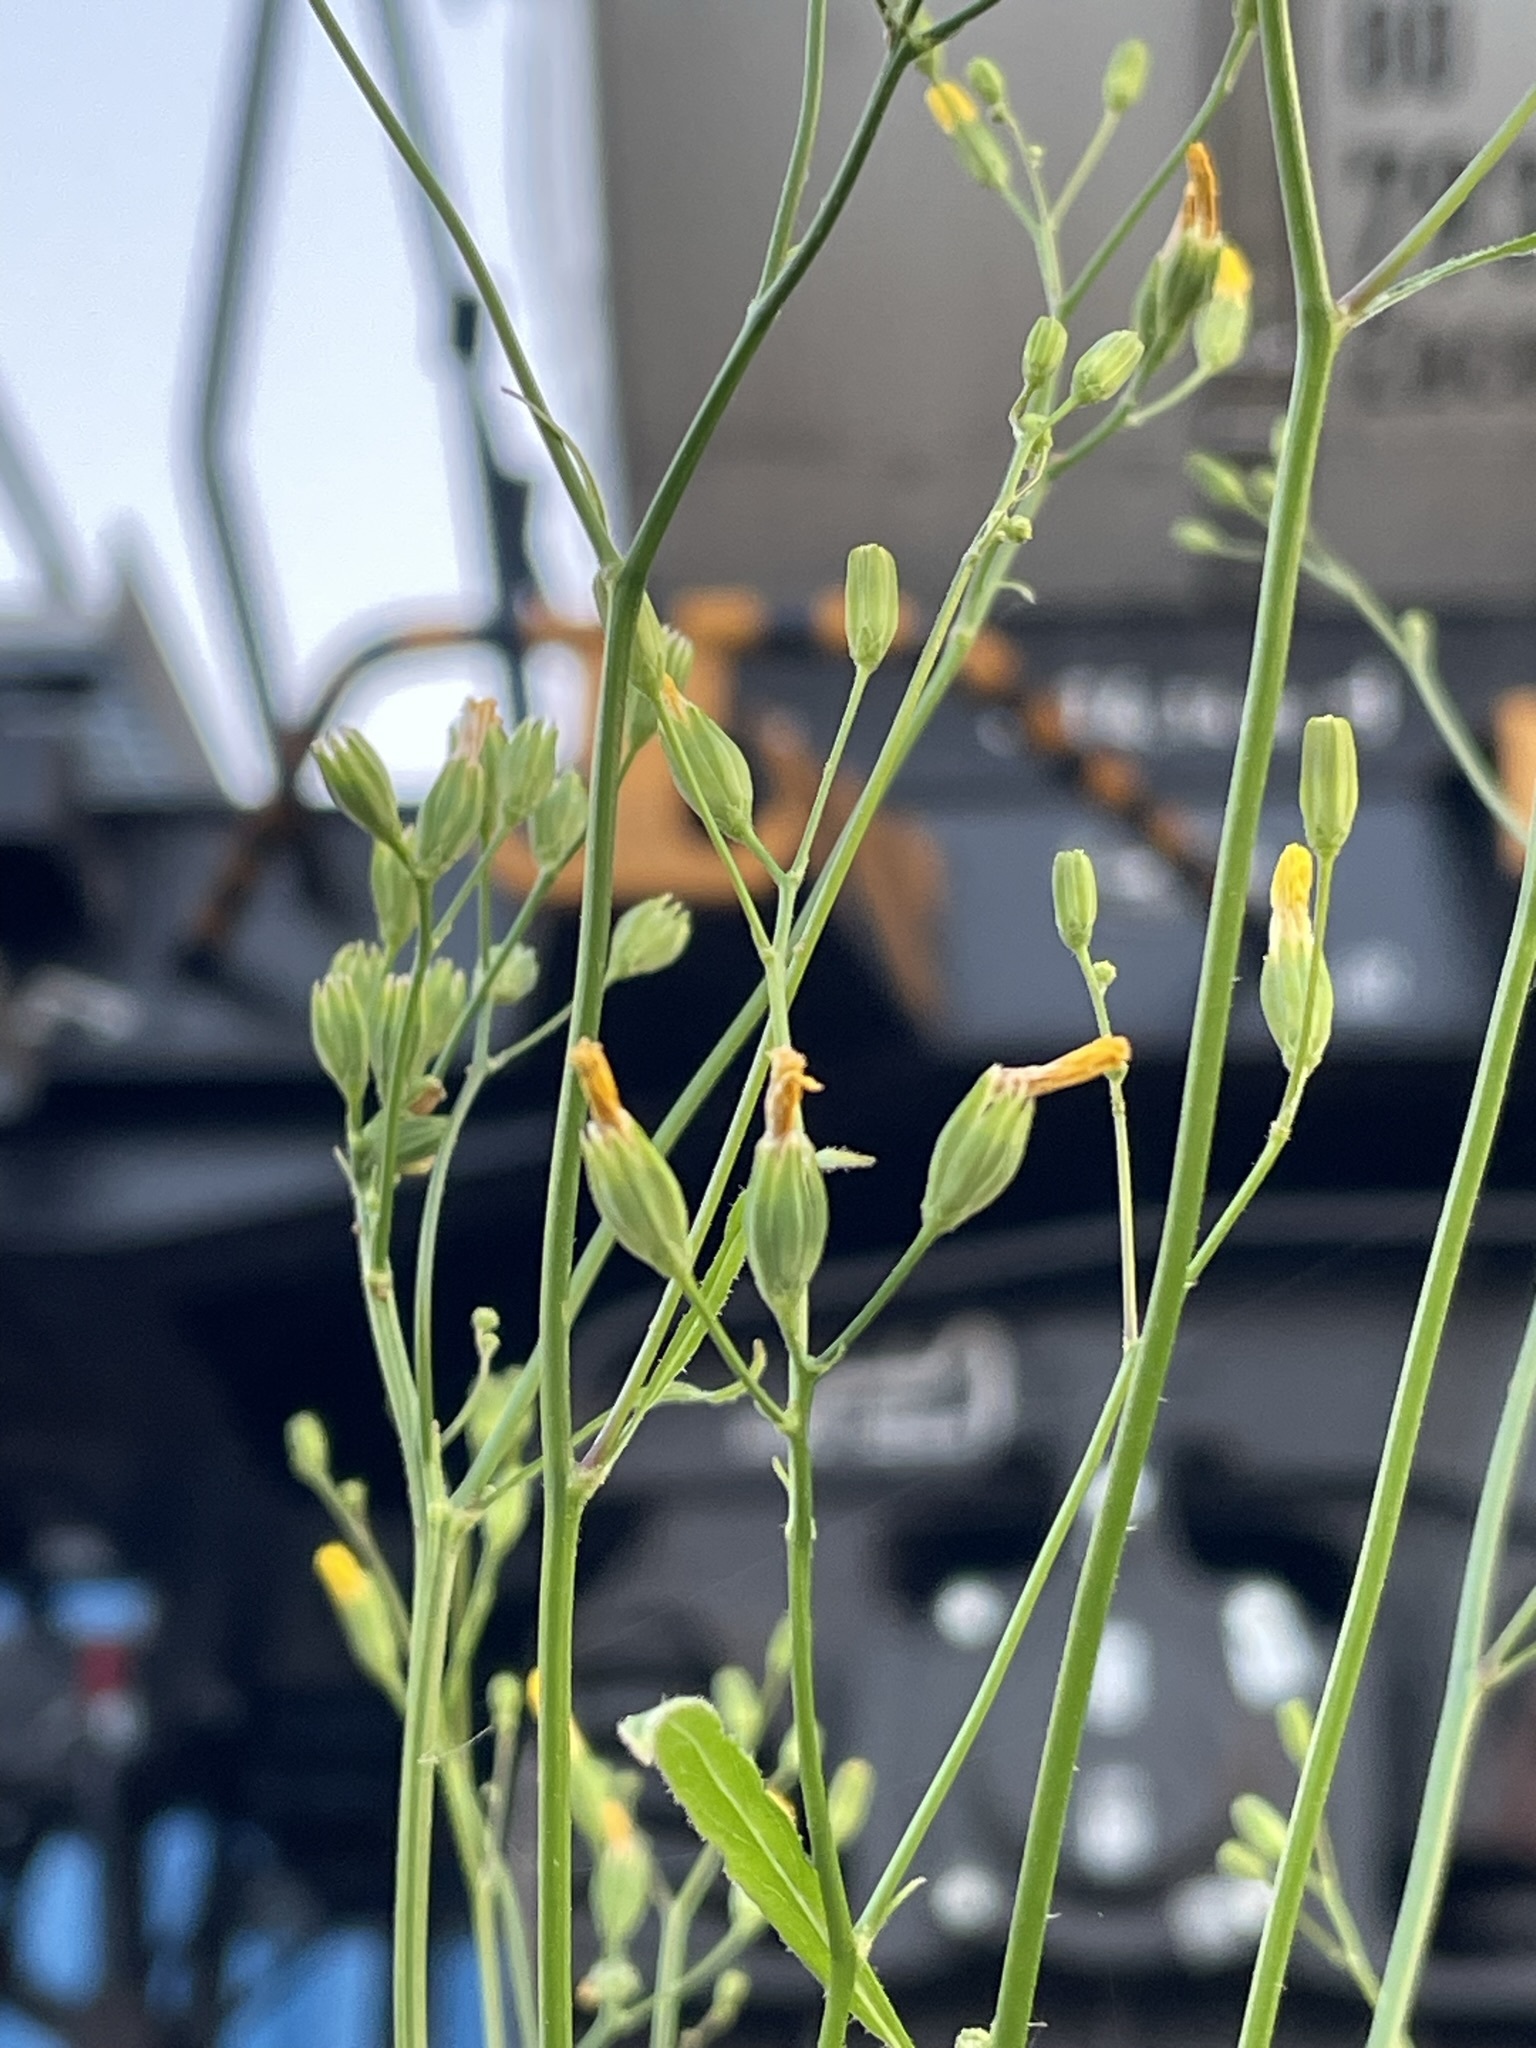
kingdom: Plantae
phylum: Tracheophyta
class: Magnoliopsida
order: Asterales
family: Asteraceae
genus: Lapsana
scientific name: Lapsana communis
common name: Nipplewort
